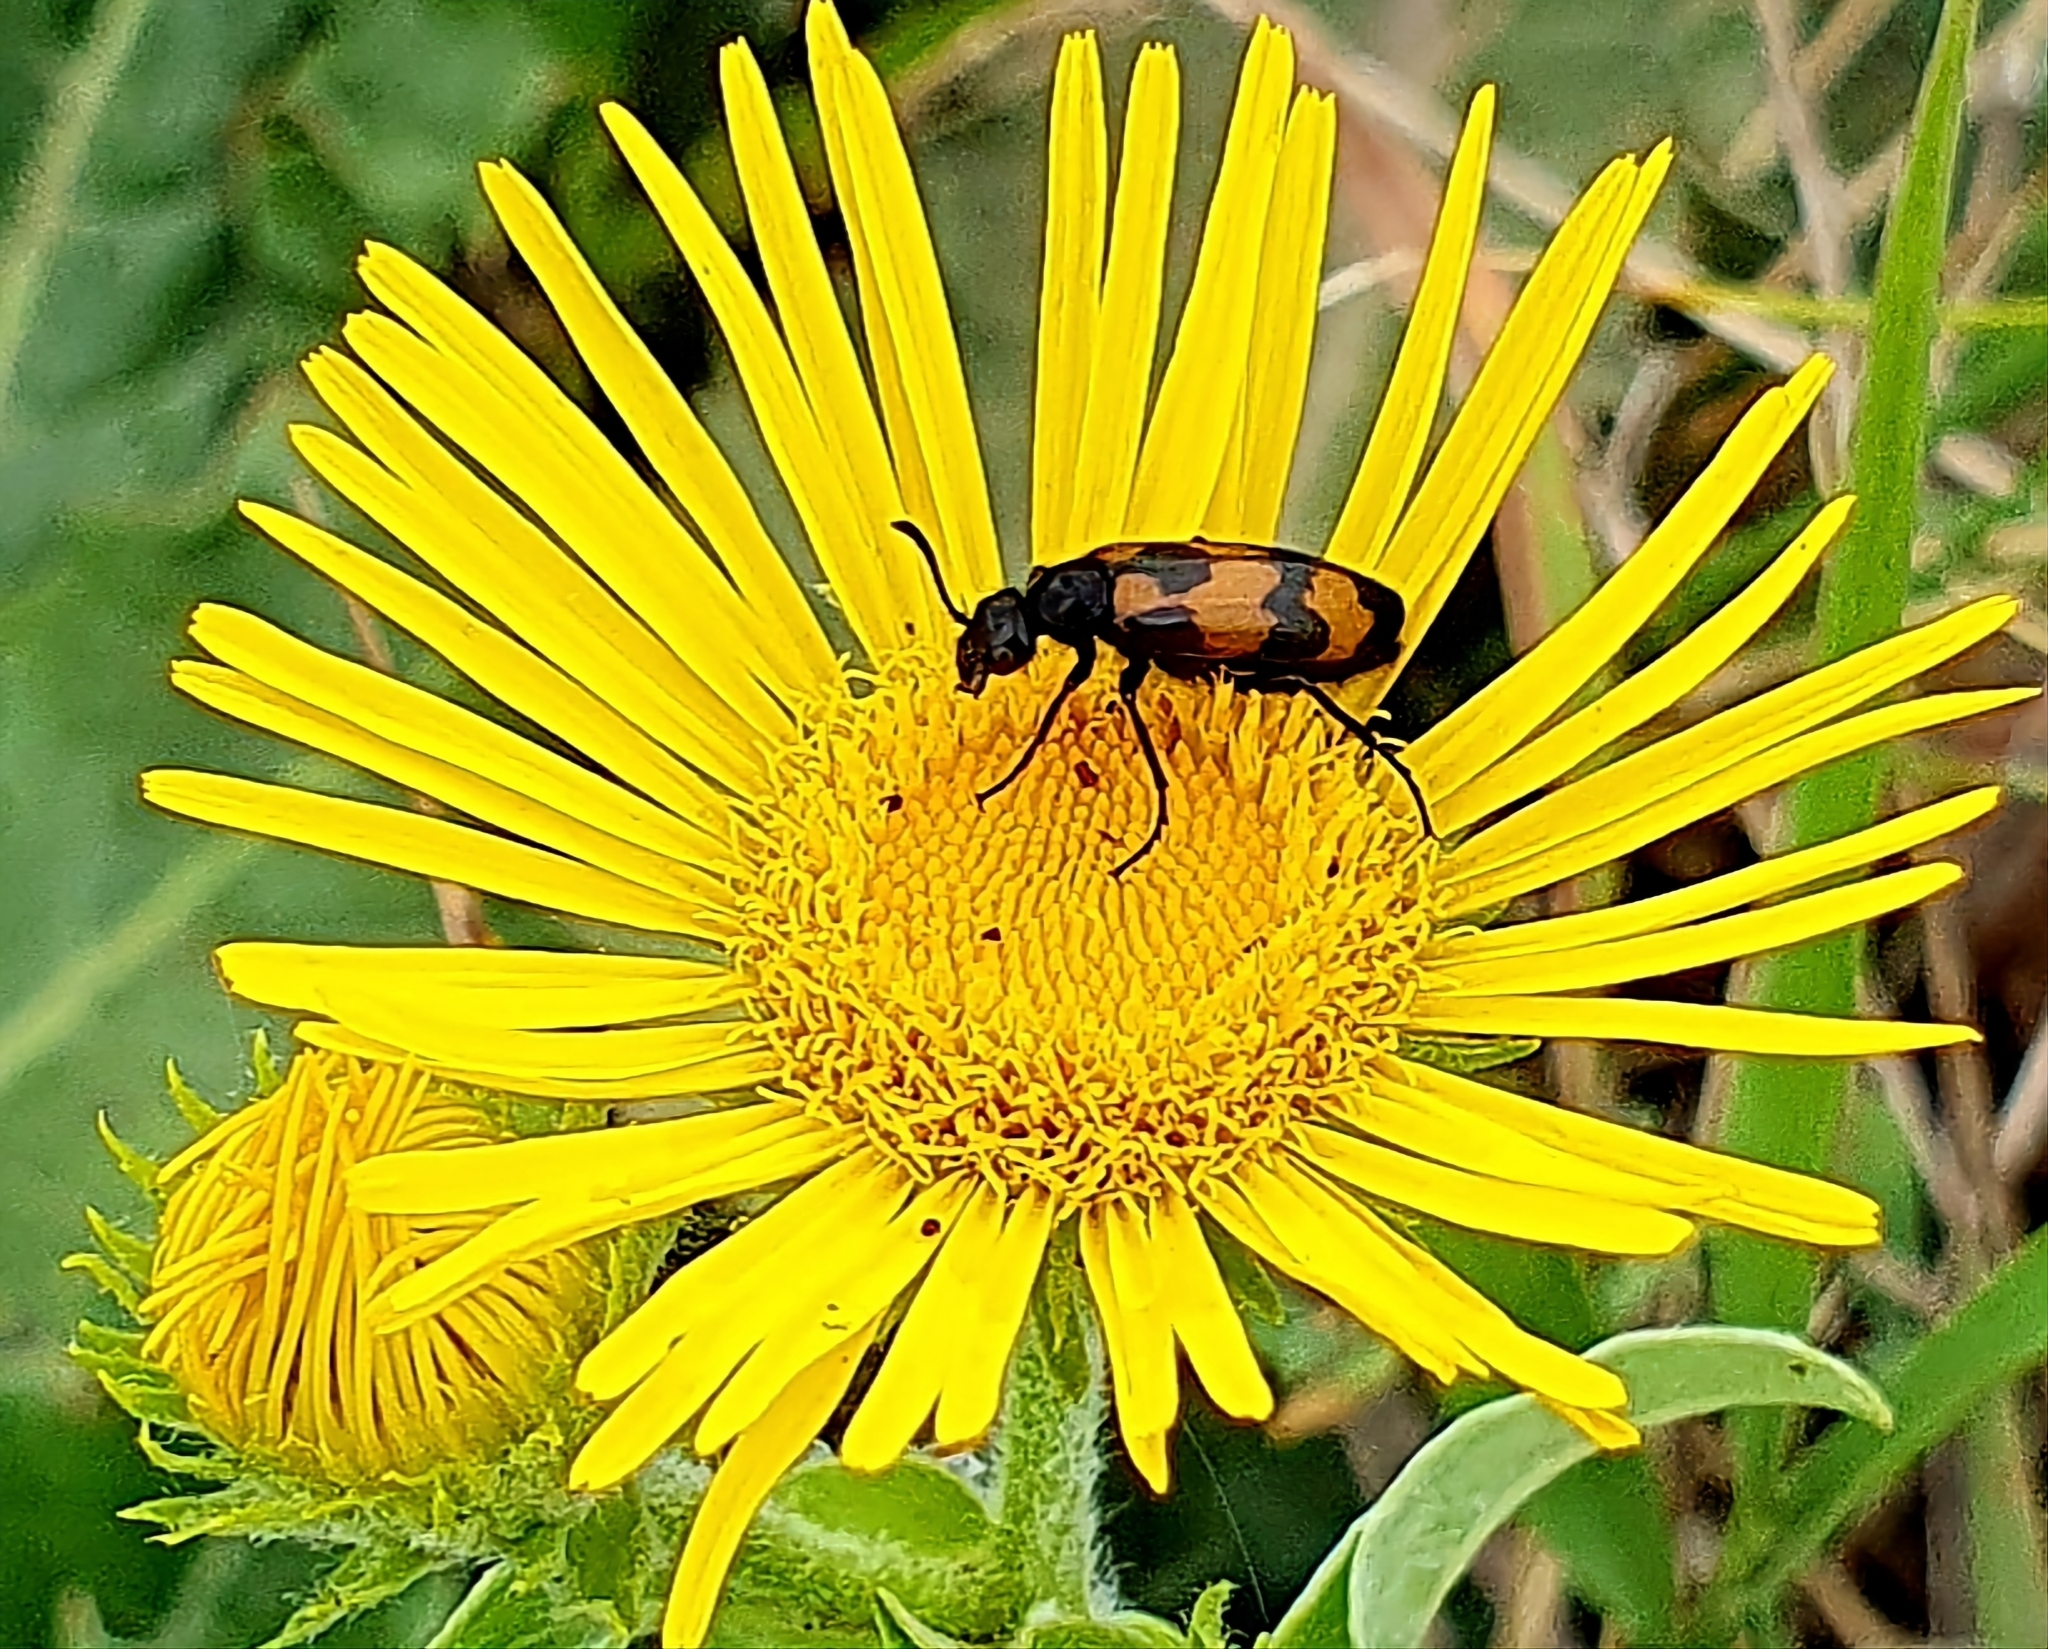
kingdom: Animalia
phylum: Arthropoda
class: Insecta
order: Coleoptera
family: Meloidae
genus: Mylabris
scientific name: Mylabris variabilis
